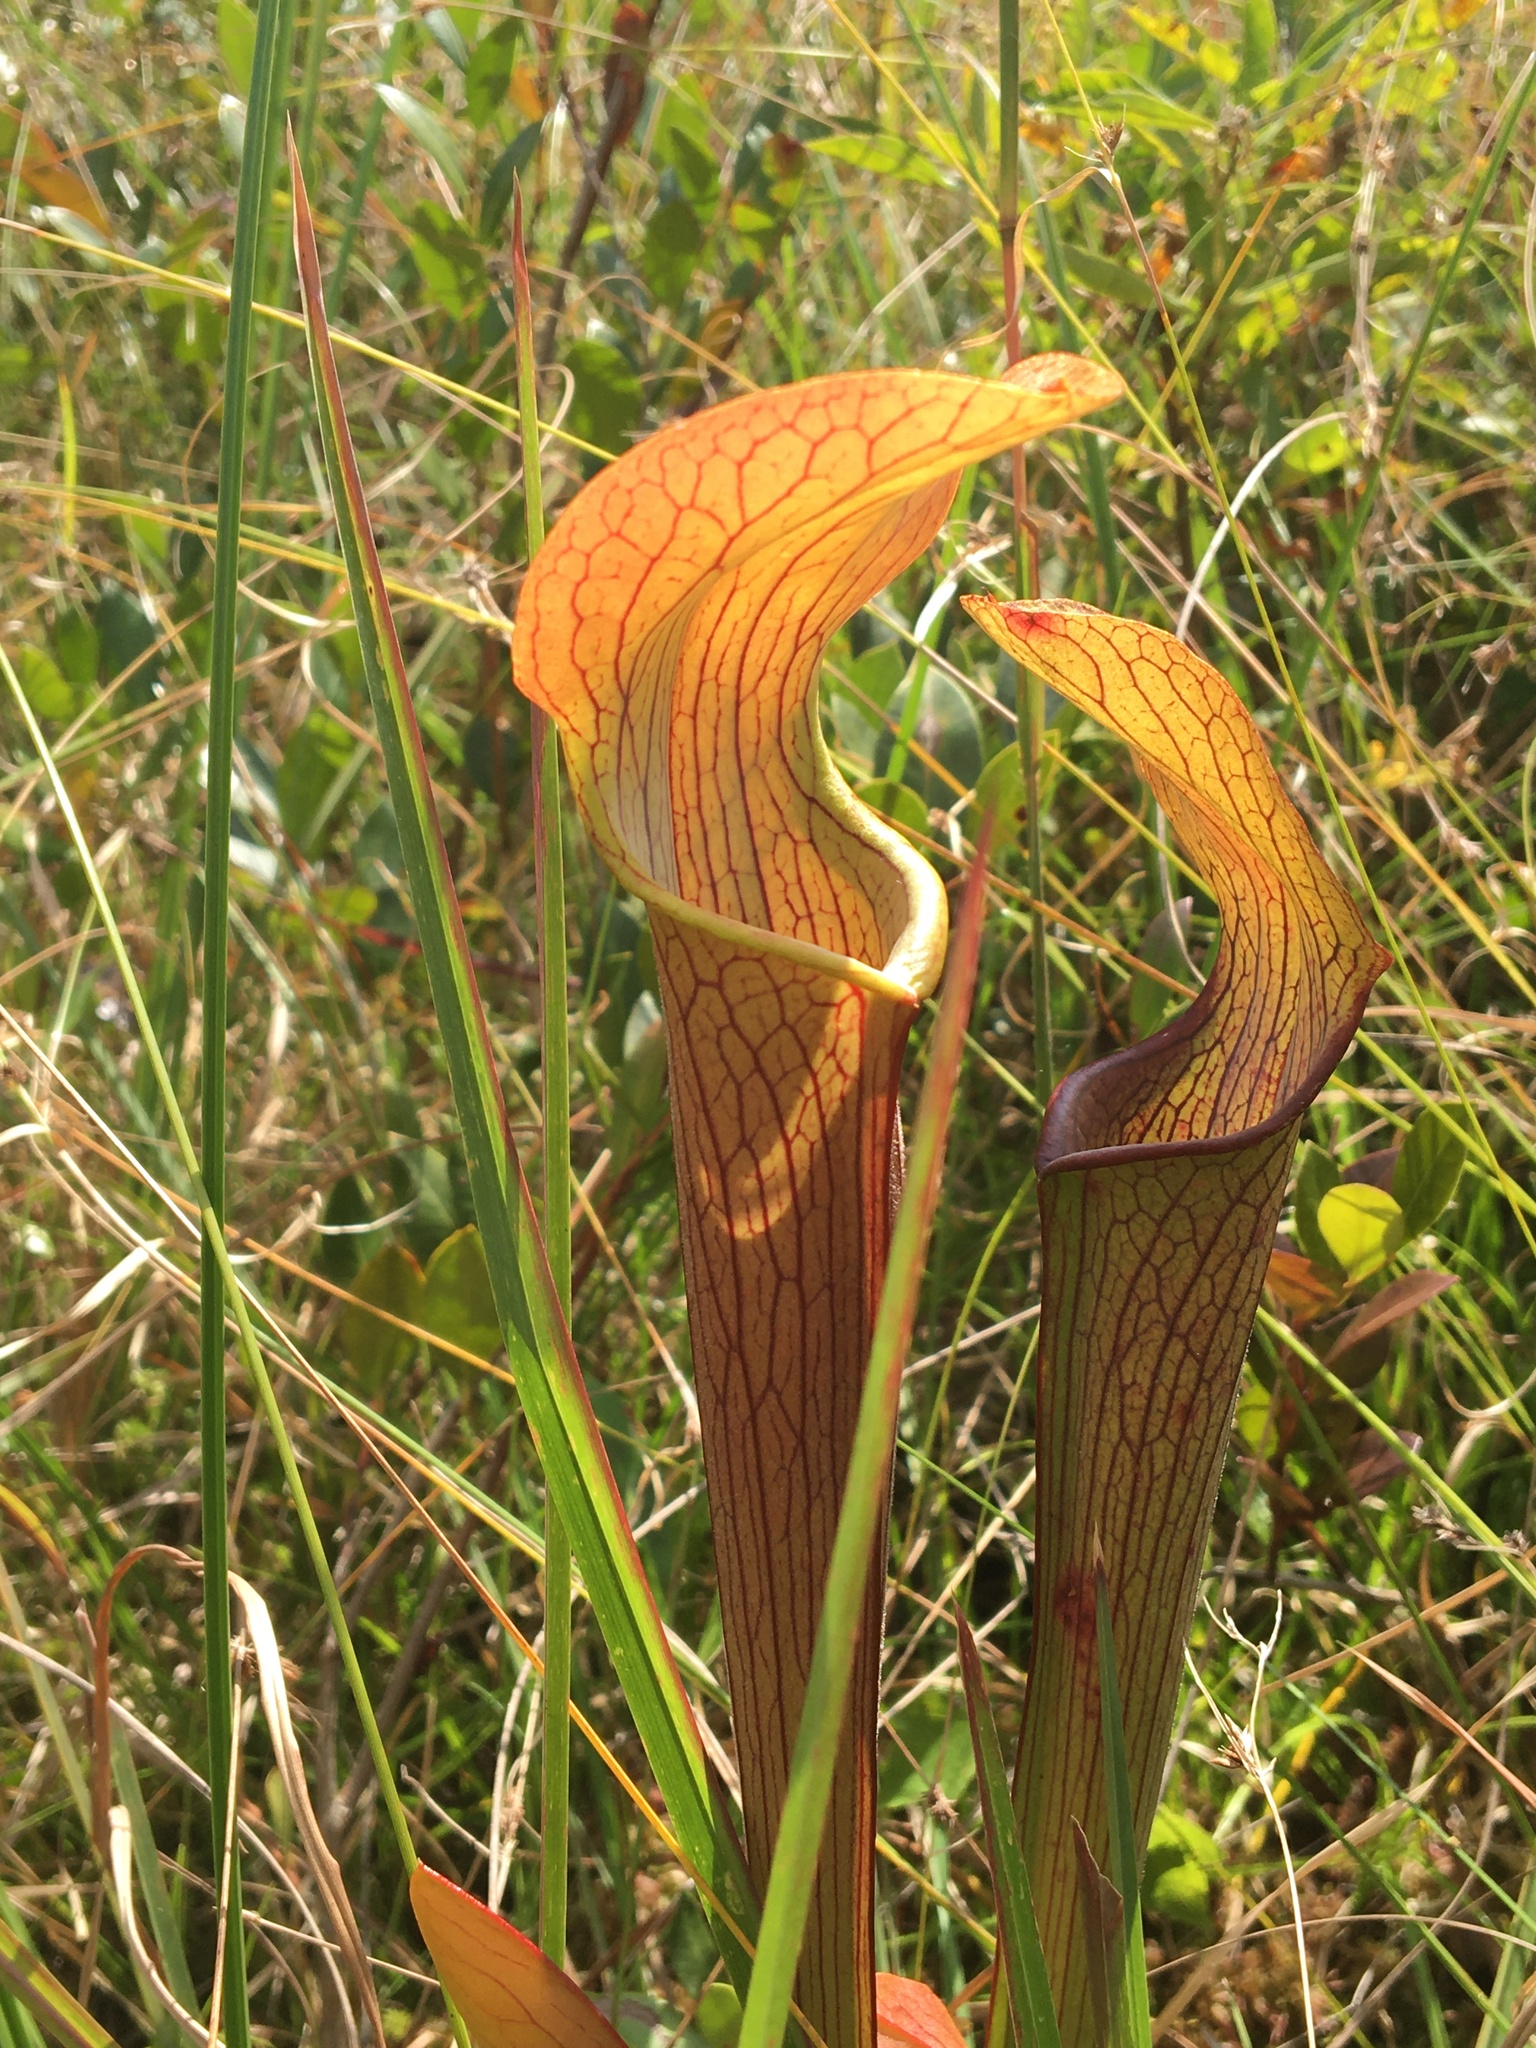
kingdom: Plantae
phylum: Tracheophyta
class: Magnoliopsida
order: Ericales
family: Sarraceniaceae
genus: Sarracenia
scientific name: Sarracenia rubra
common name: Sweet pitcherplant
